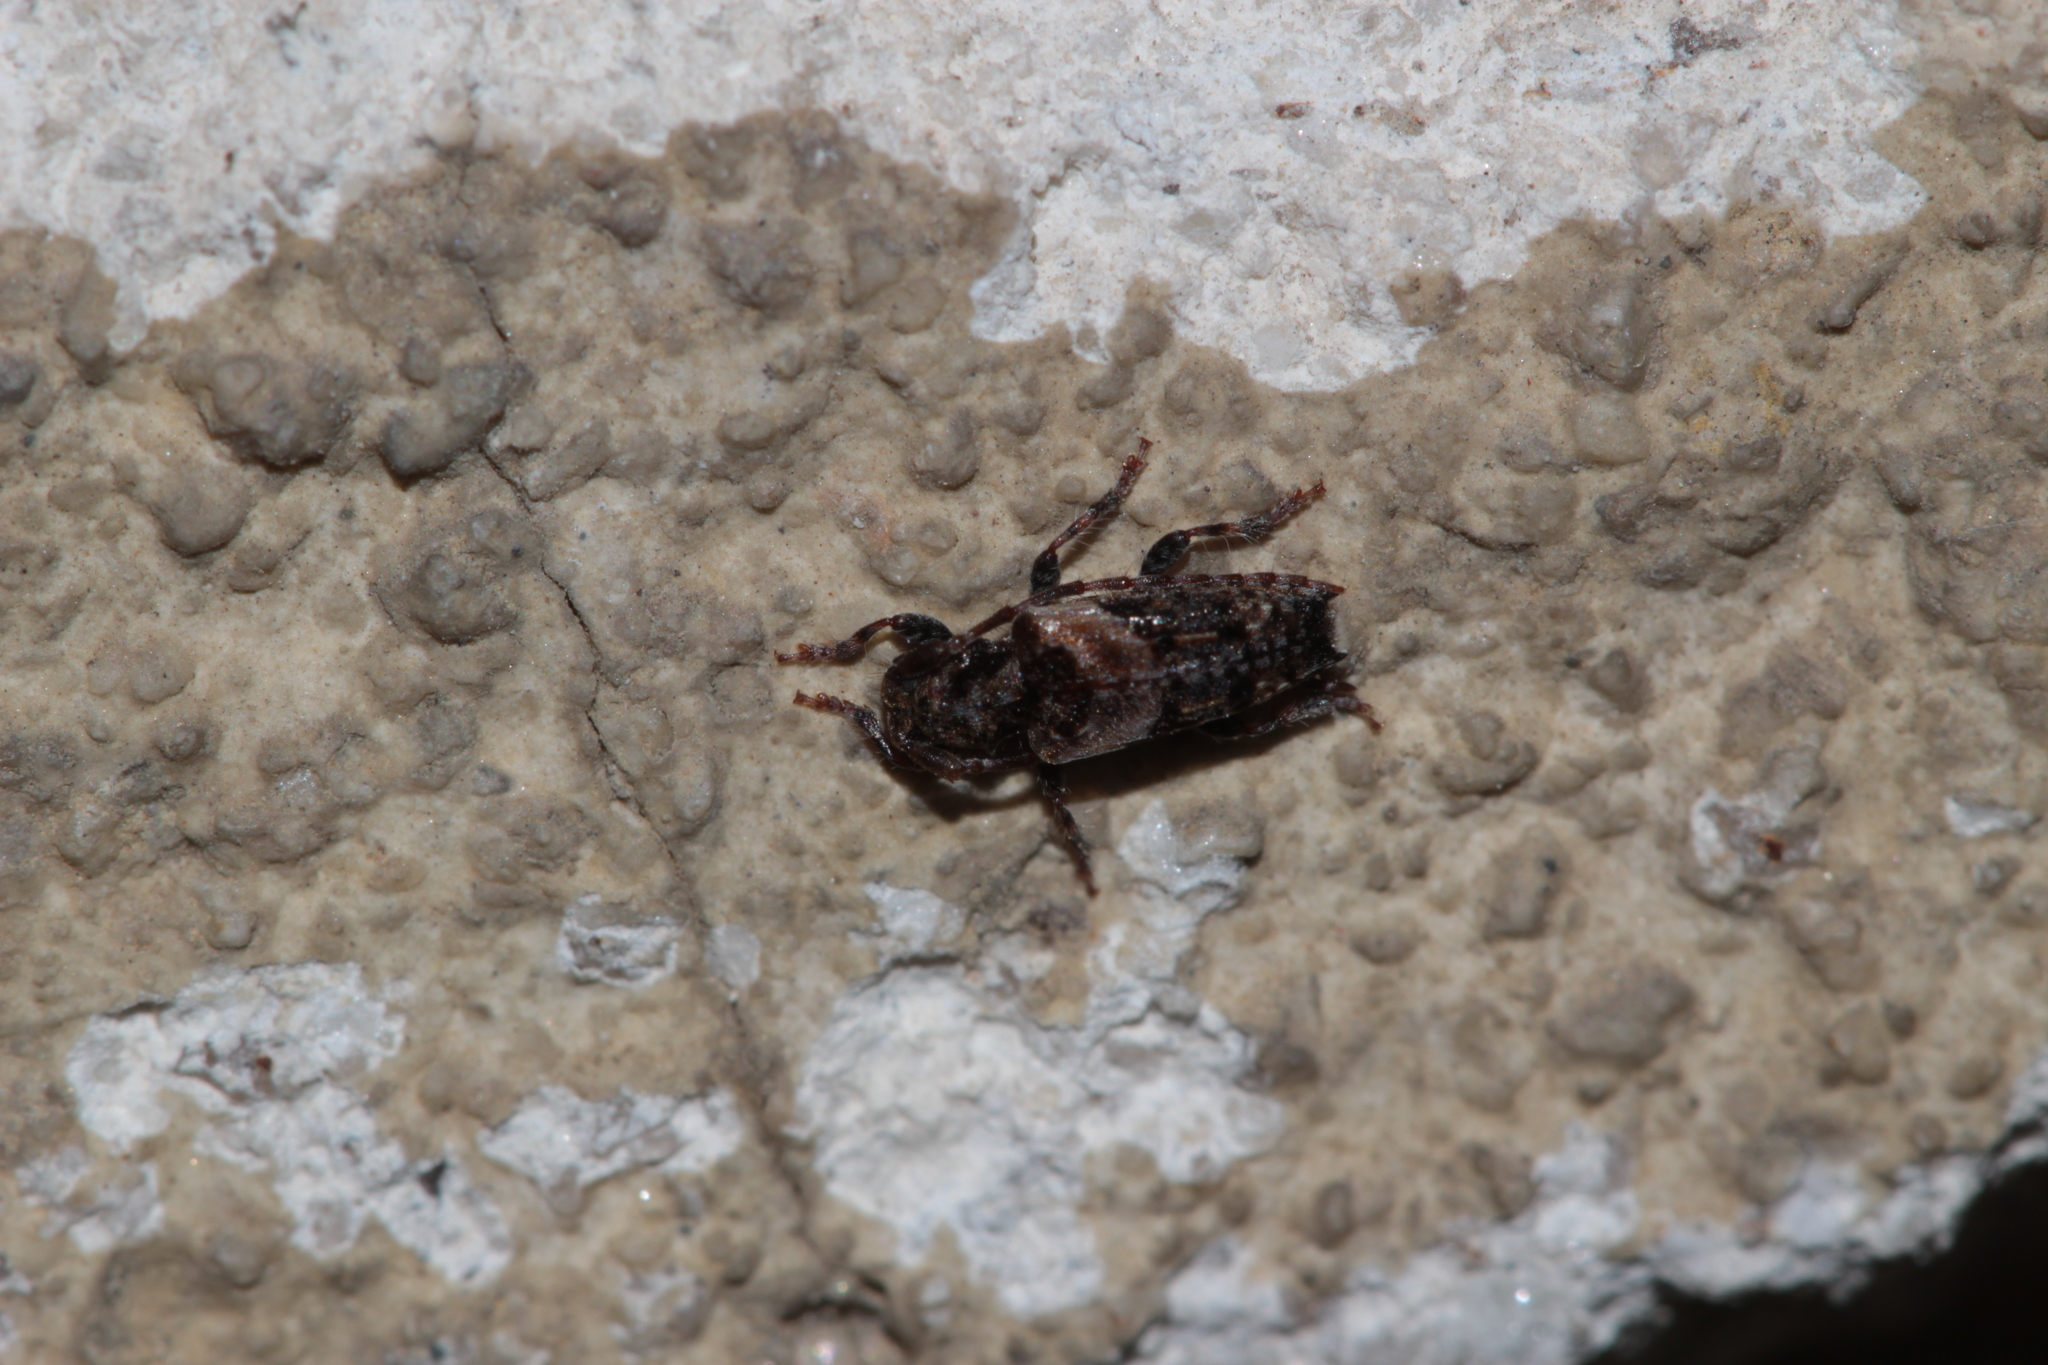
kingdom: Animalia
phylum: Arthropoda
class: Insecta
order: Coleoptera
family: Cerambycidae
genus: Pogonocherus
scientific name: Pogonocherus hispidus
